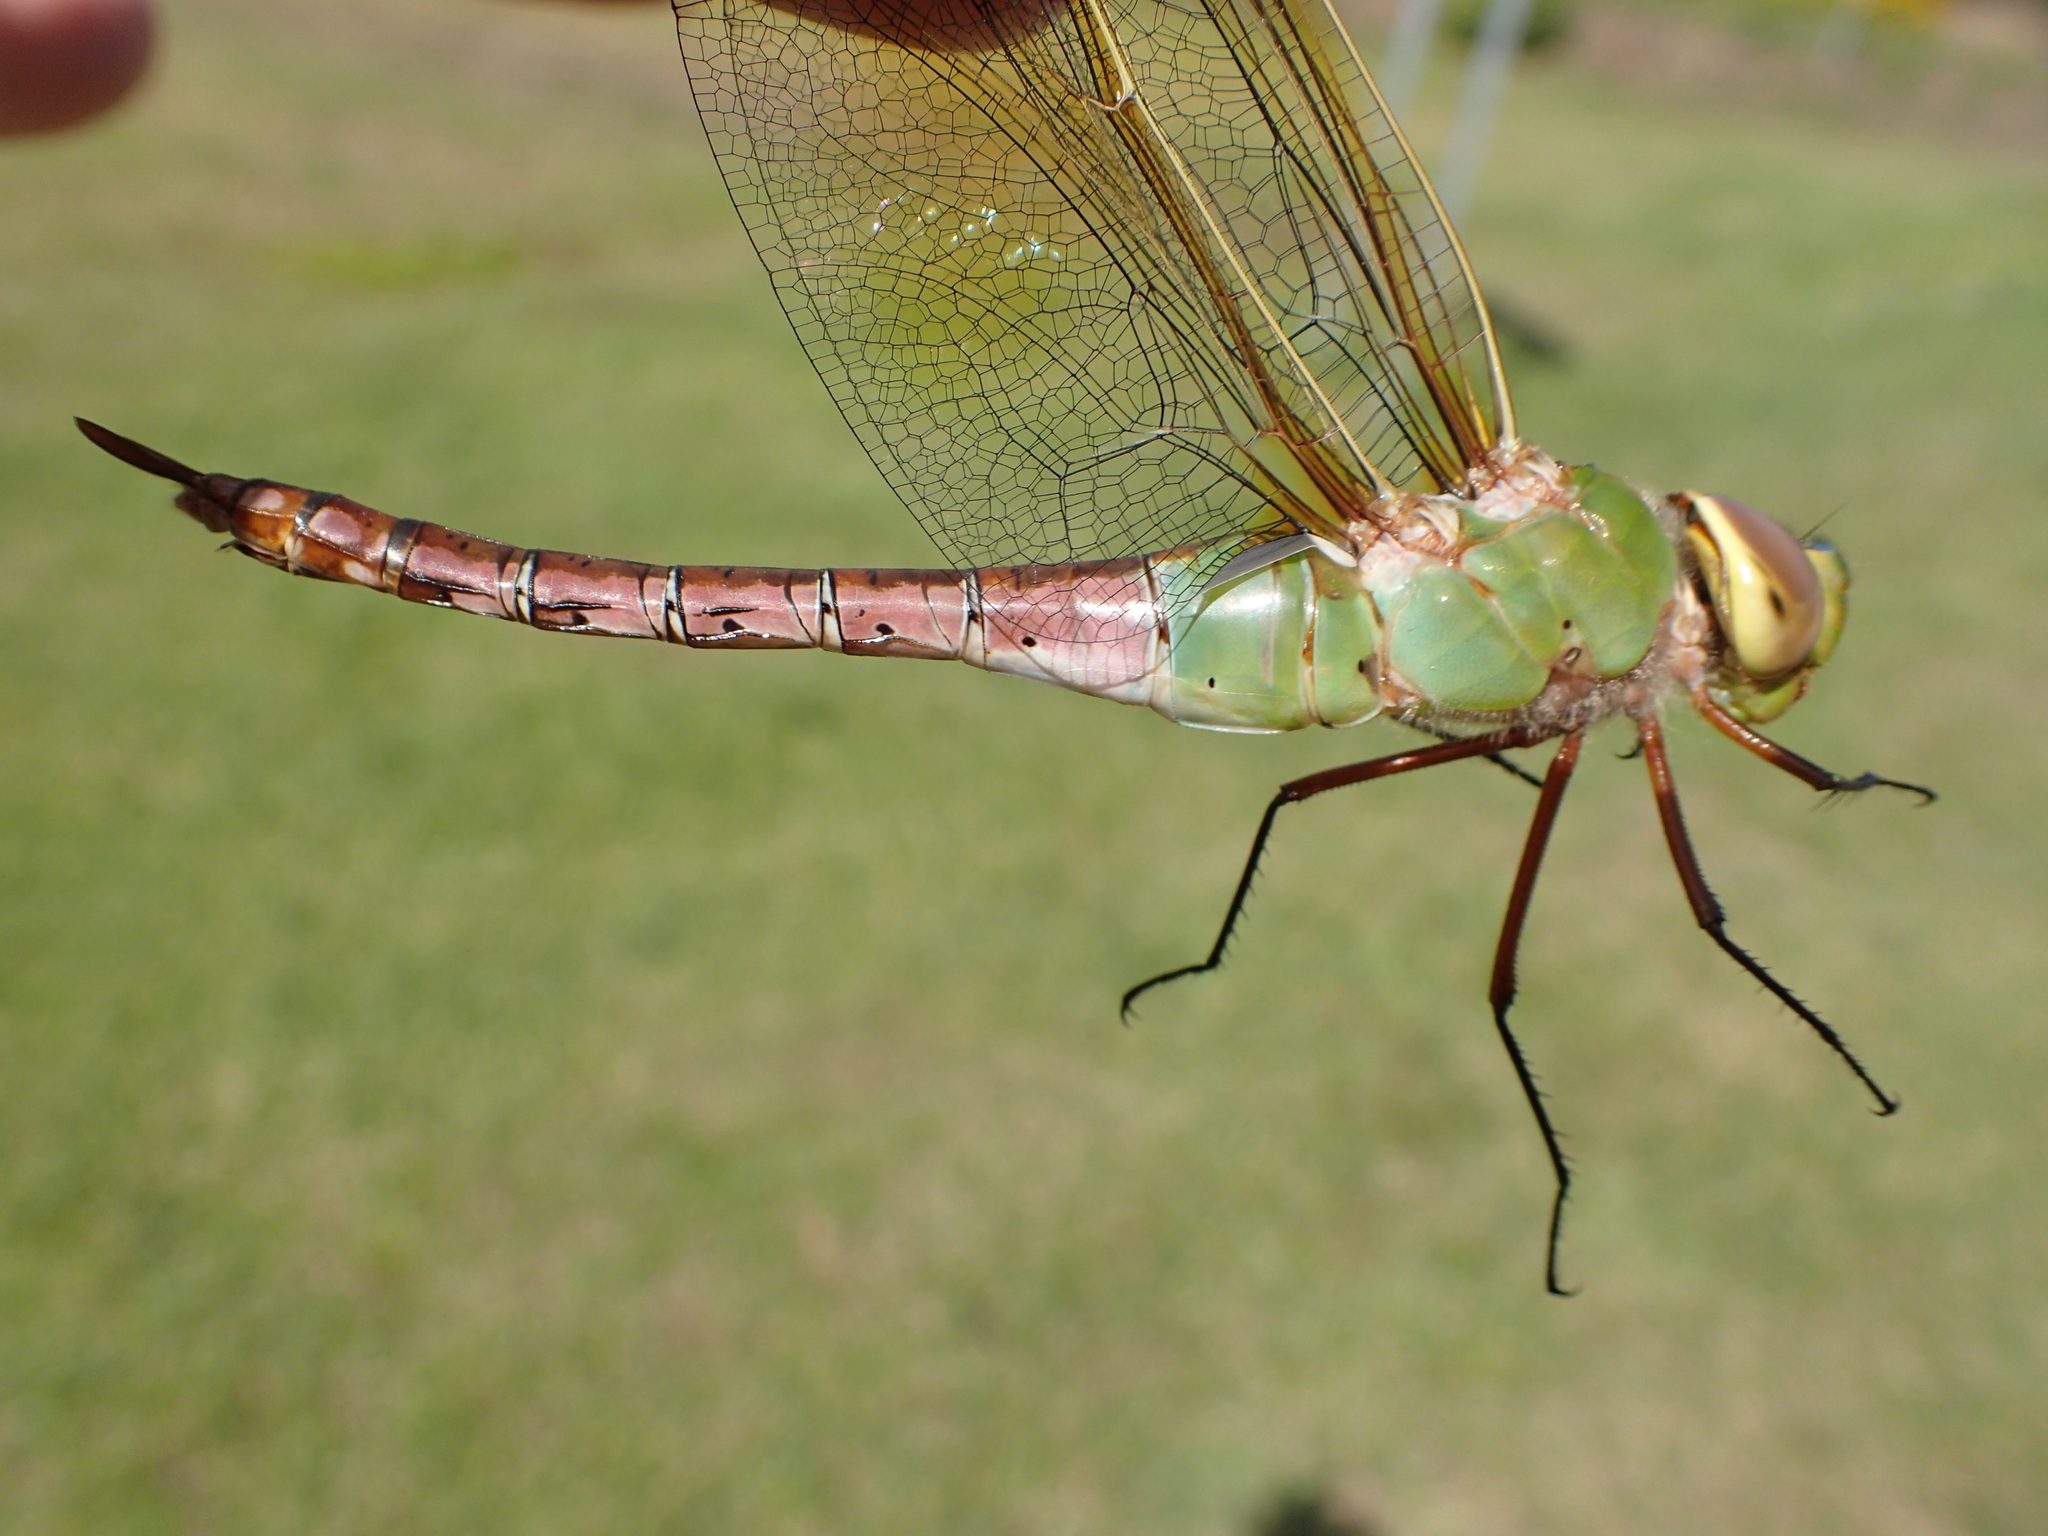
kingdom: Animalia
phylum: Arthropoda
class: Insecta
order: Odonata
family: Aeshnidae
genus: Anax
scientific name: Anax junius
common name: Common green darner
